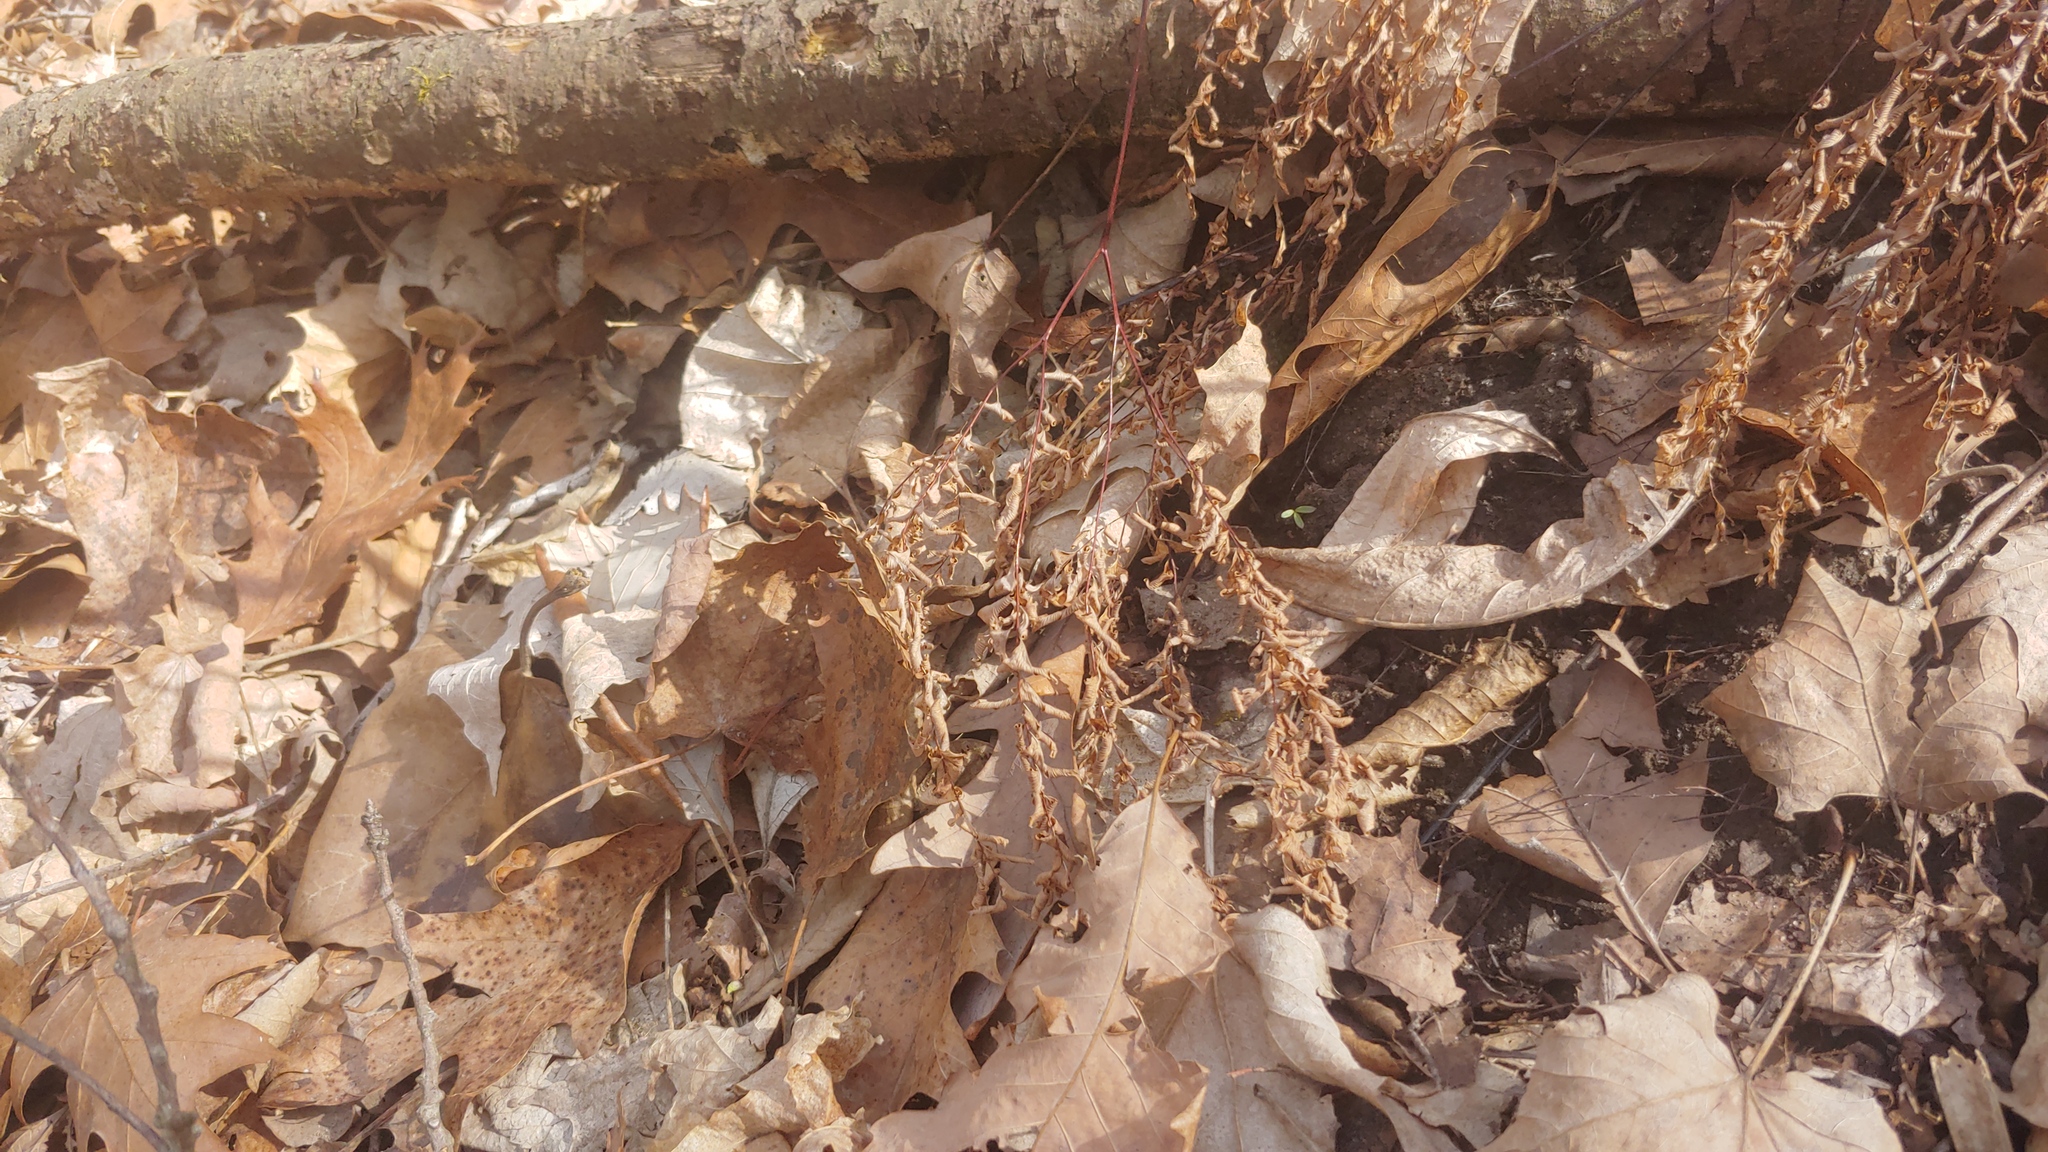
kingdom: Plantae
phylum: Tracheophyta
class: Polypodiopsida
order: Polypodiales
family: Pteridaceae
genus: Adiantum
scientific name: Adiantum pedatum
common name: Five-finger fern
